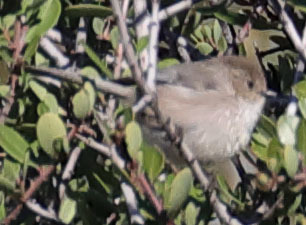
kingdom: Animalia
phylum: Chordata
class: Aves
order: Passeriformes
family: Aegithalidae
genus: Psaltriparus
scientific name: Psaltriparus minimus
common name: American bushtit
